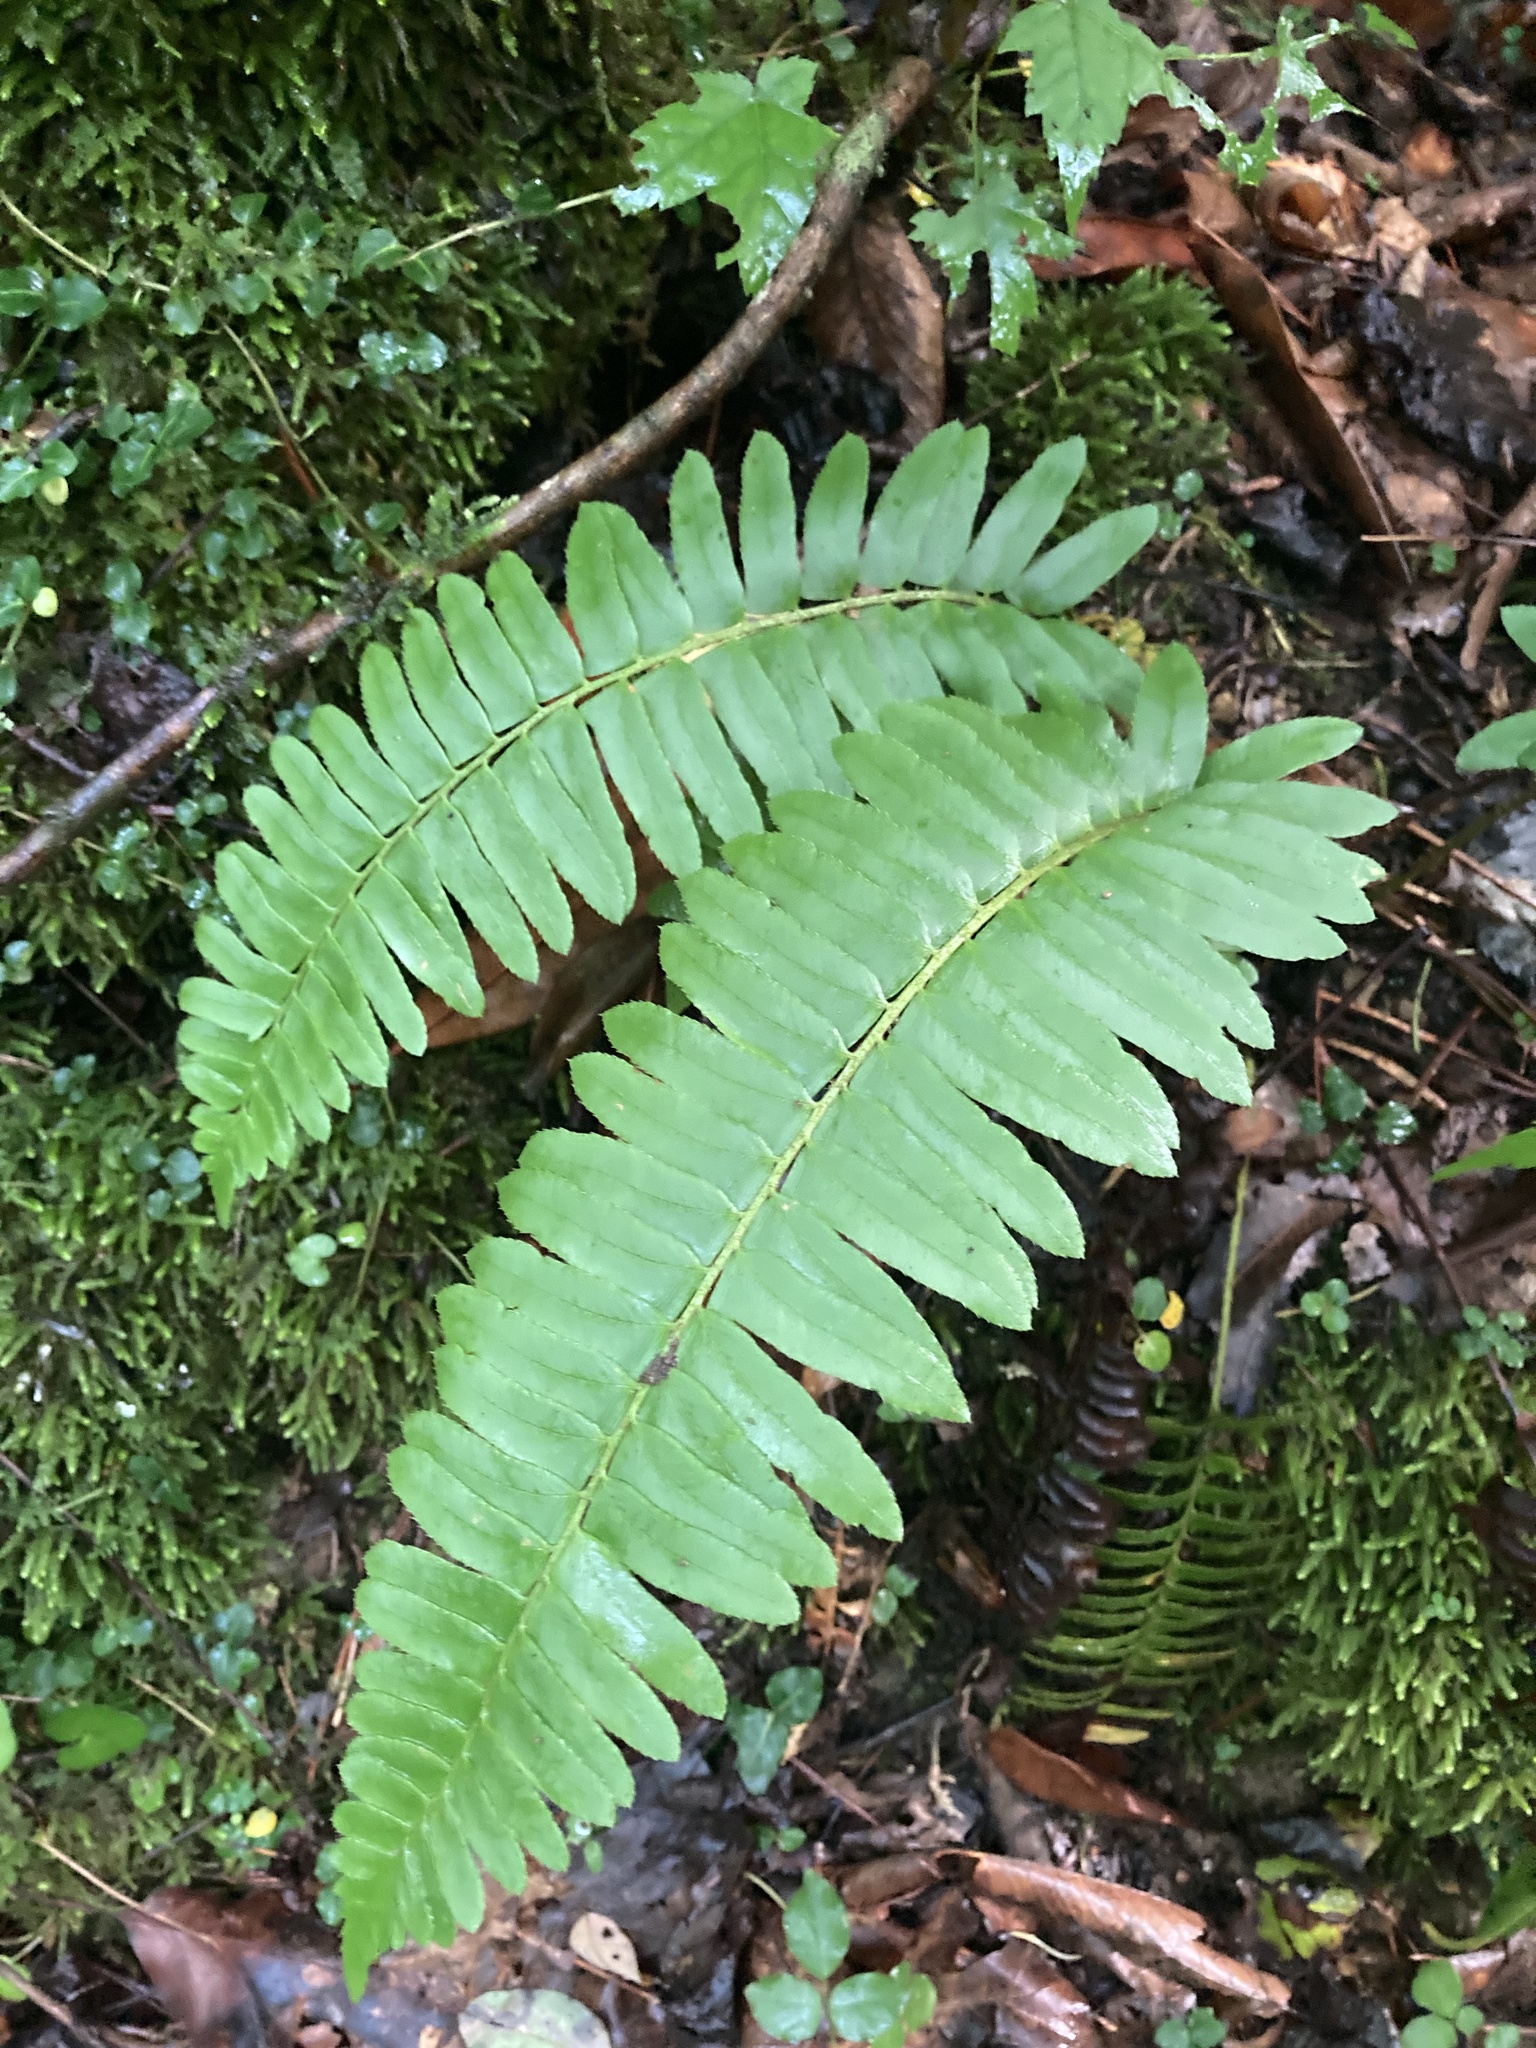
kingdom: Plantae
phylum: Tracheophyta
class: Polypodiopsida
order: Polypodiales
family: Dryopteridaceae
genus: Polystichum
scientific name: Polystichum acrostichoides
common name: Christmas fern
